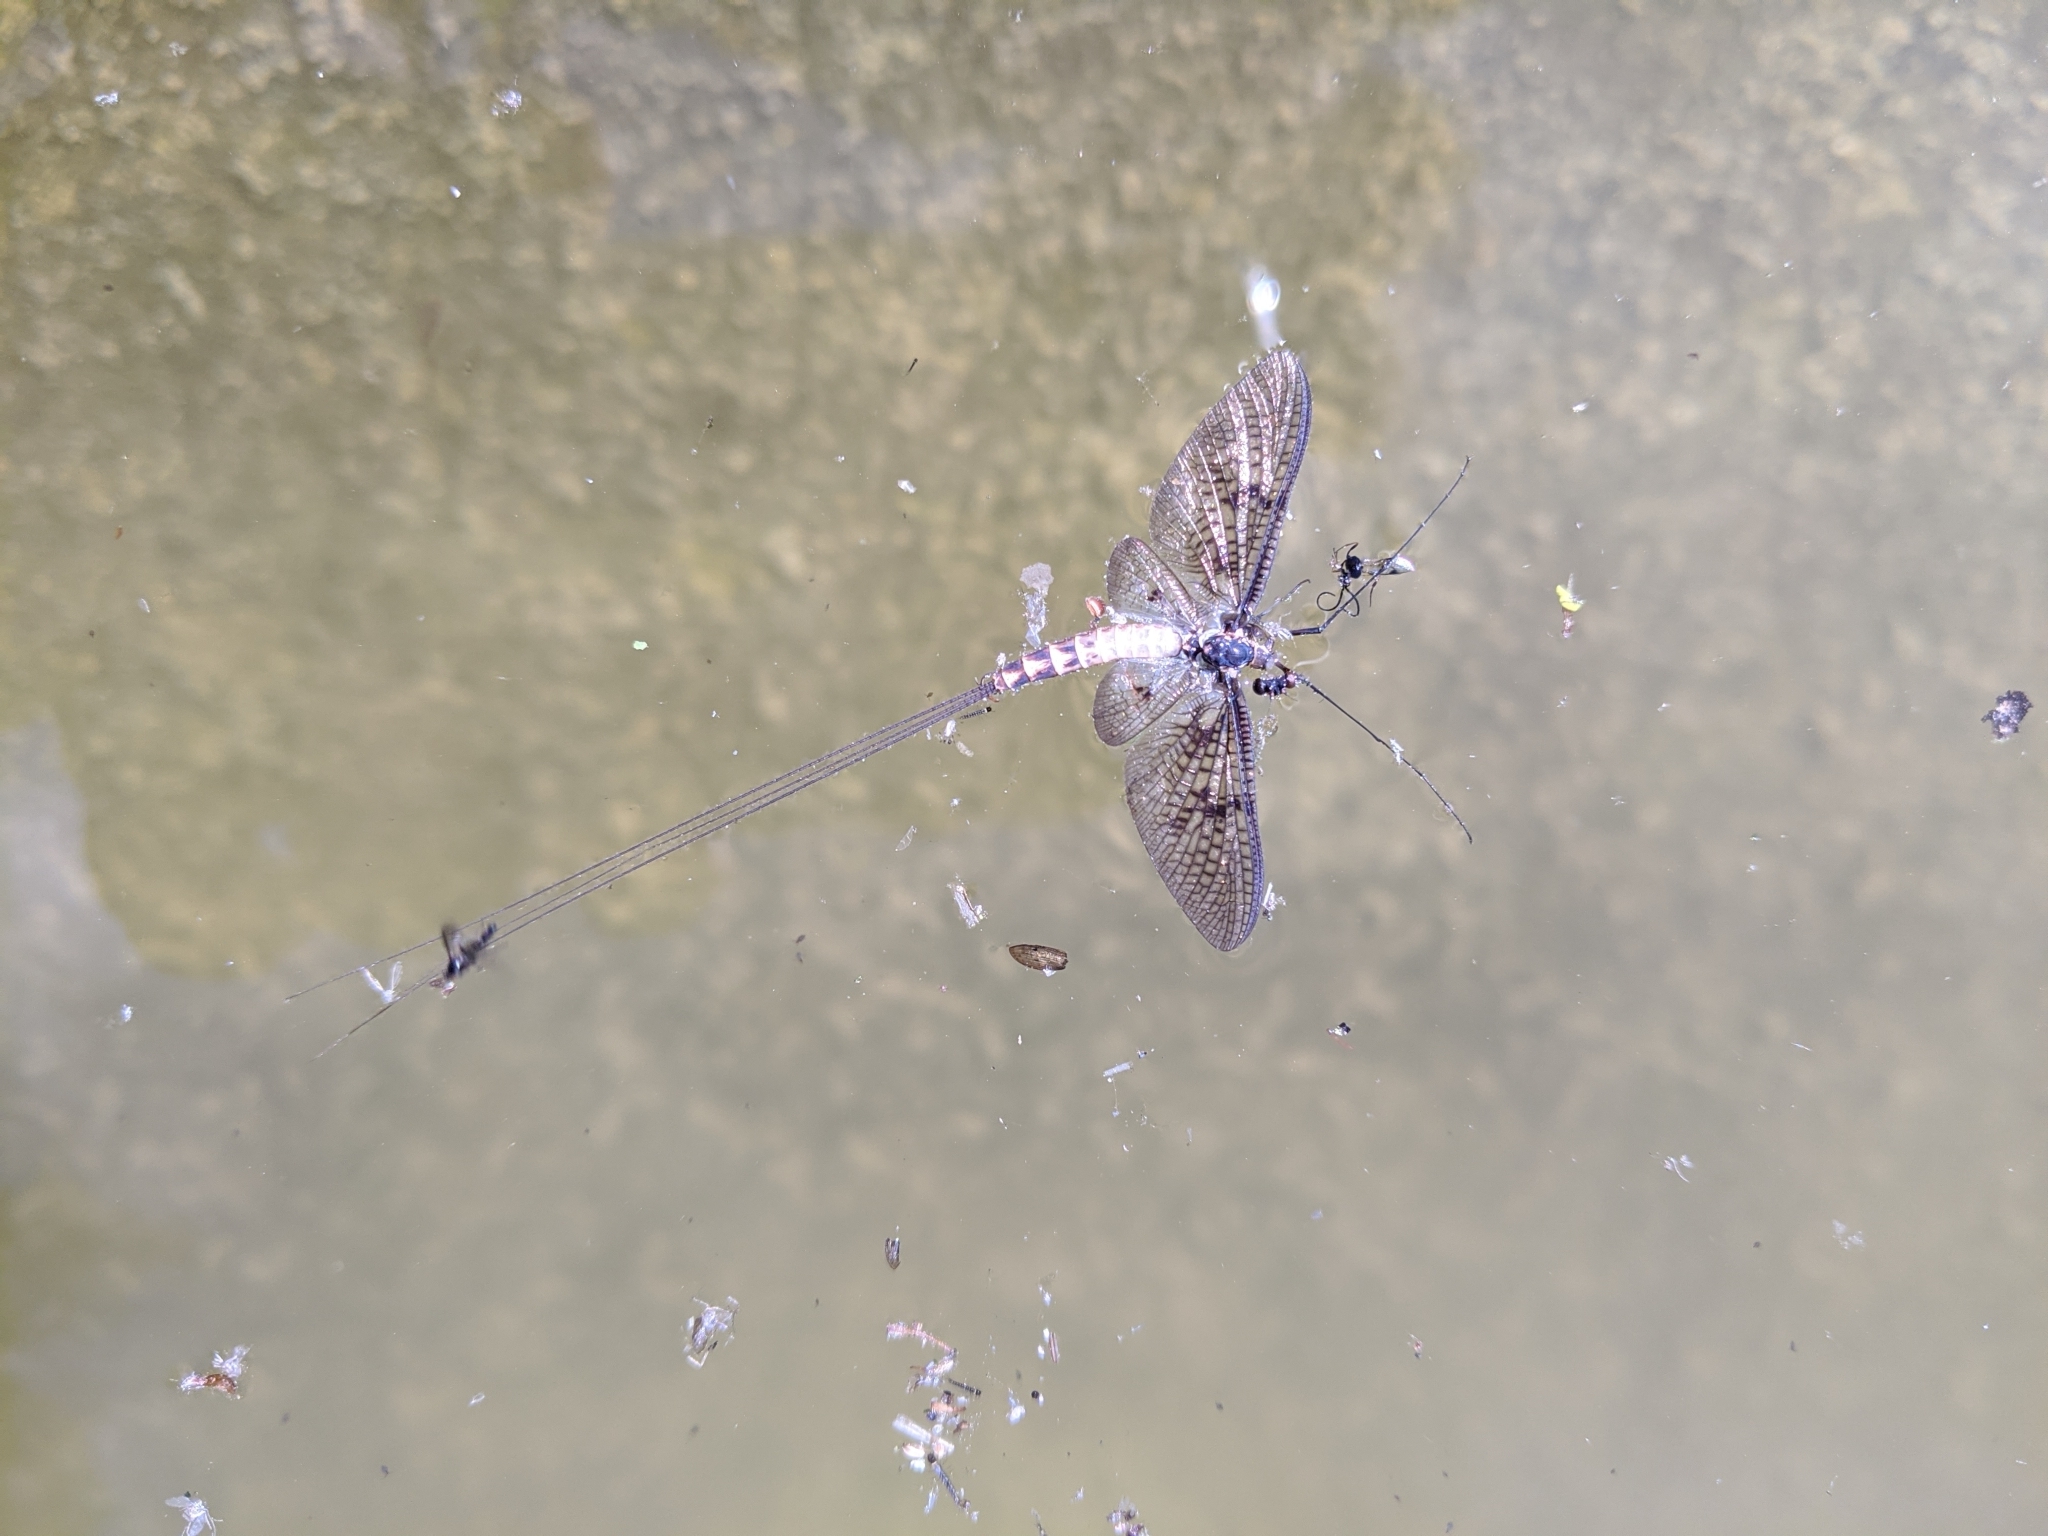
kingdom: Animalia
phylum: Arthropoda
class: Insecta
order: Ephemeroptera
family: Ephemeridae
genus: Ephemera
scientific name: Ephemera danica
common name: Green dun
